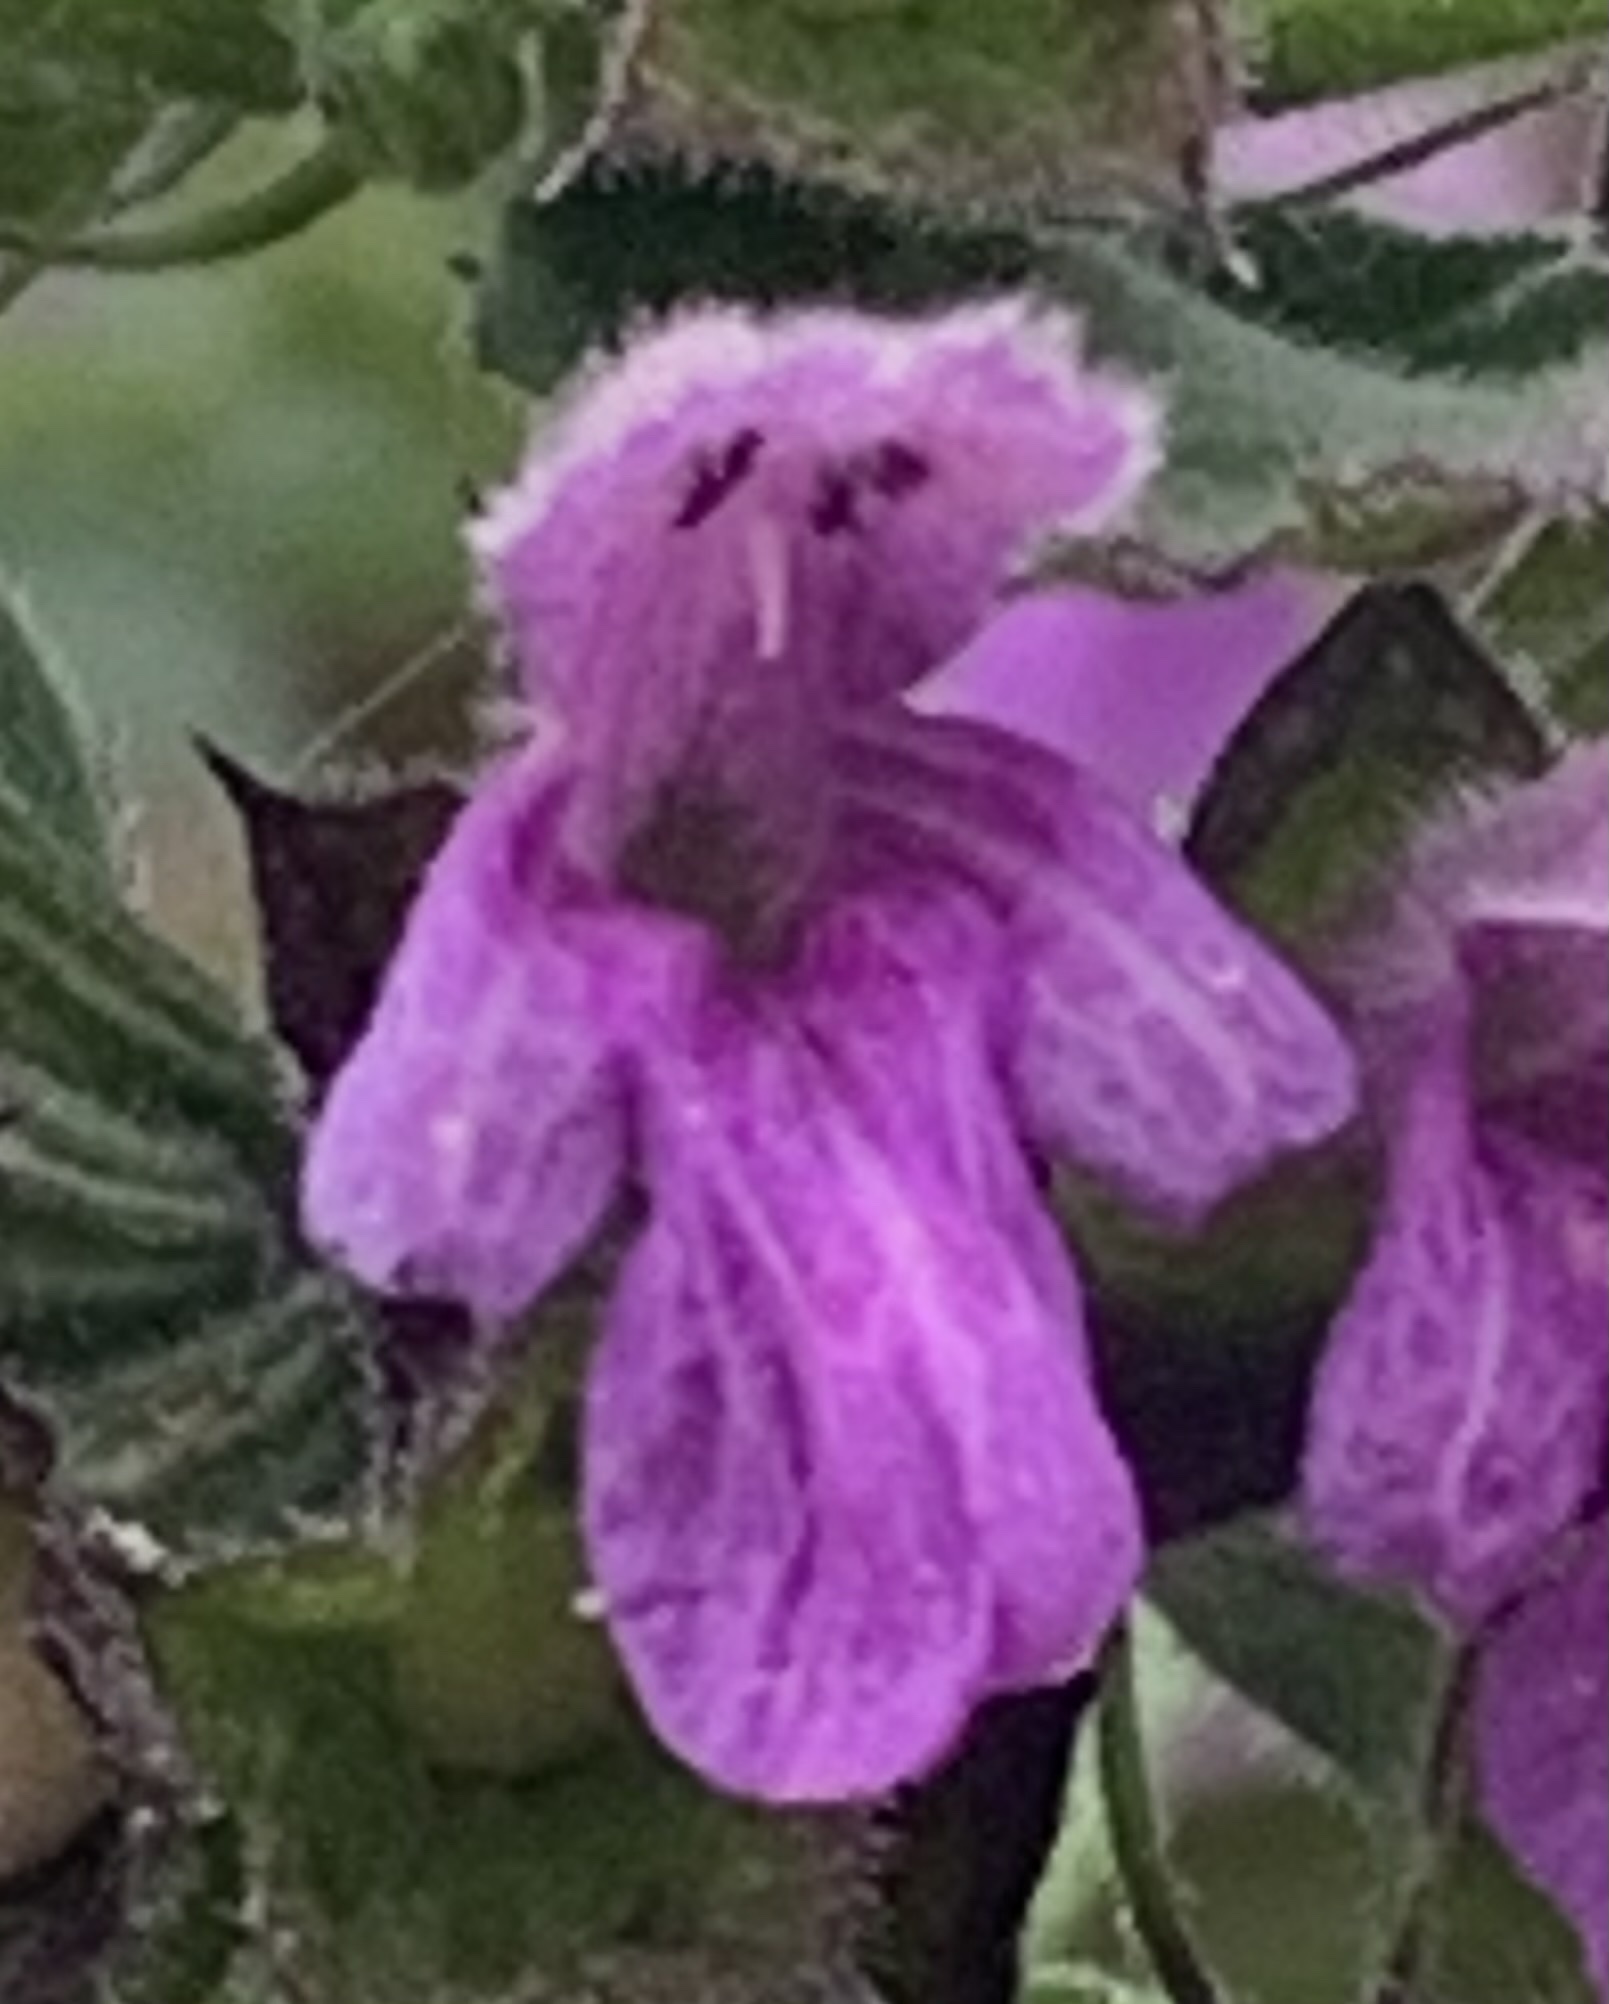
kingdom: Plantae
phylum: Tracheophyta
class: Magnoliopsida
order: Lamiales
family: Lamiaceae
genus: Ballota
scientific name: Ballota nigra
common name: Black horehound
